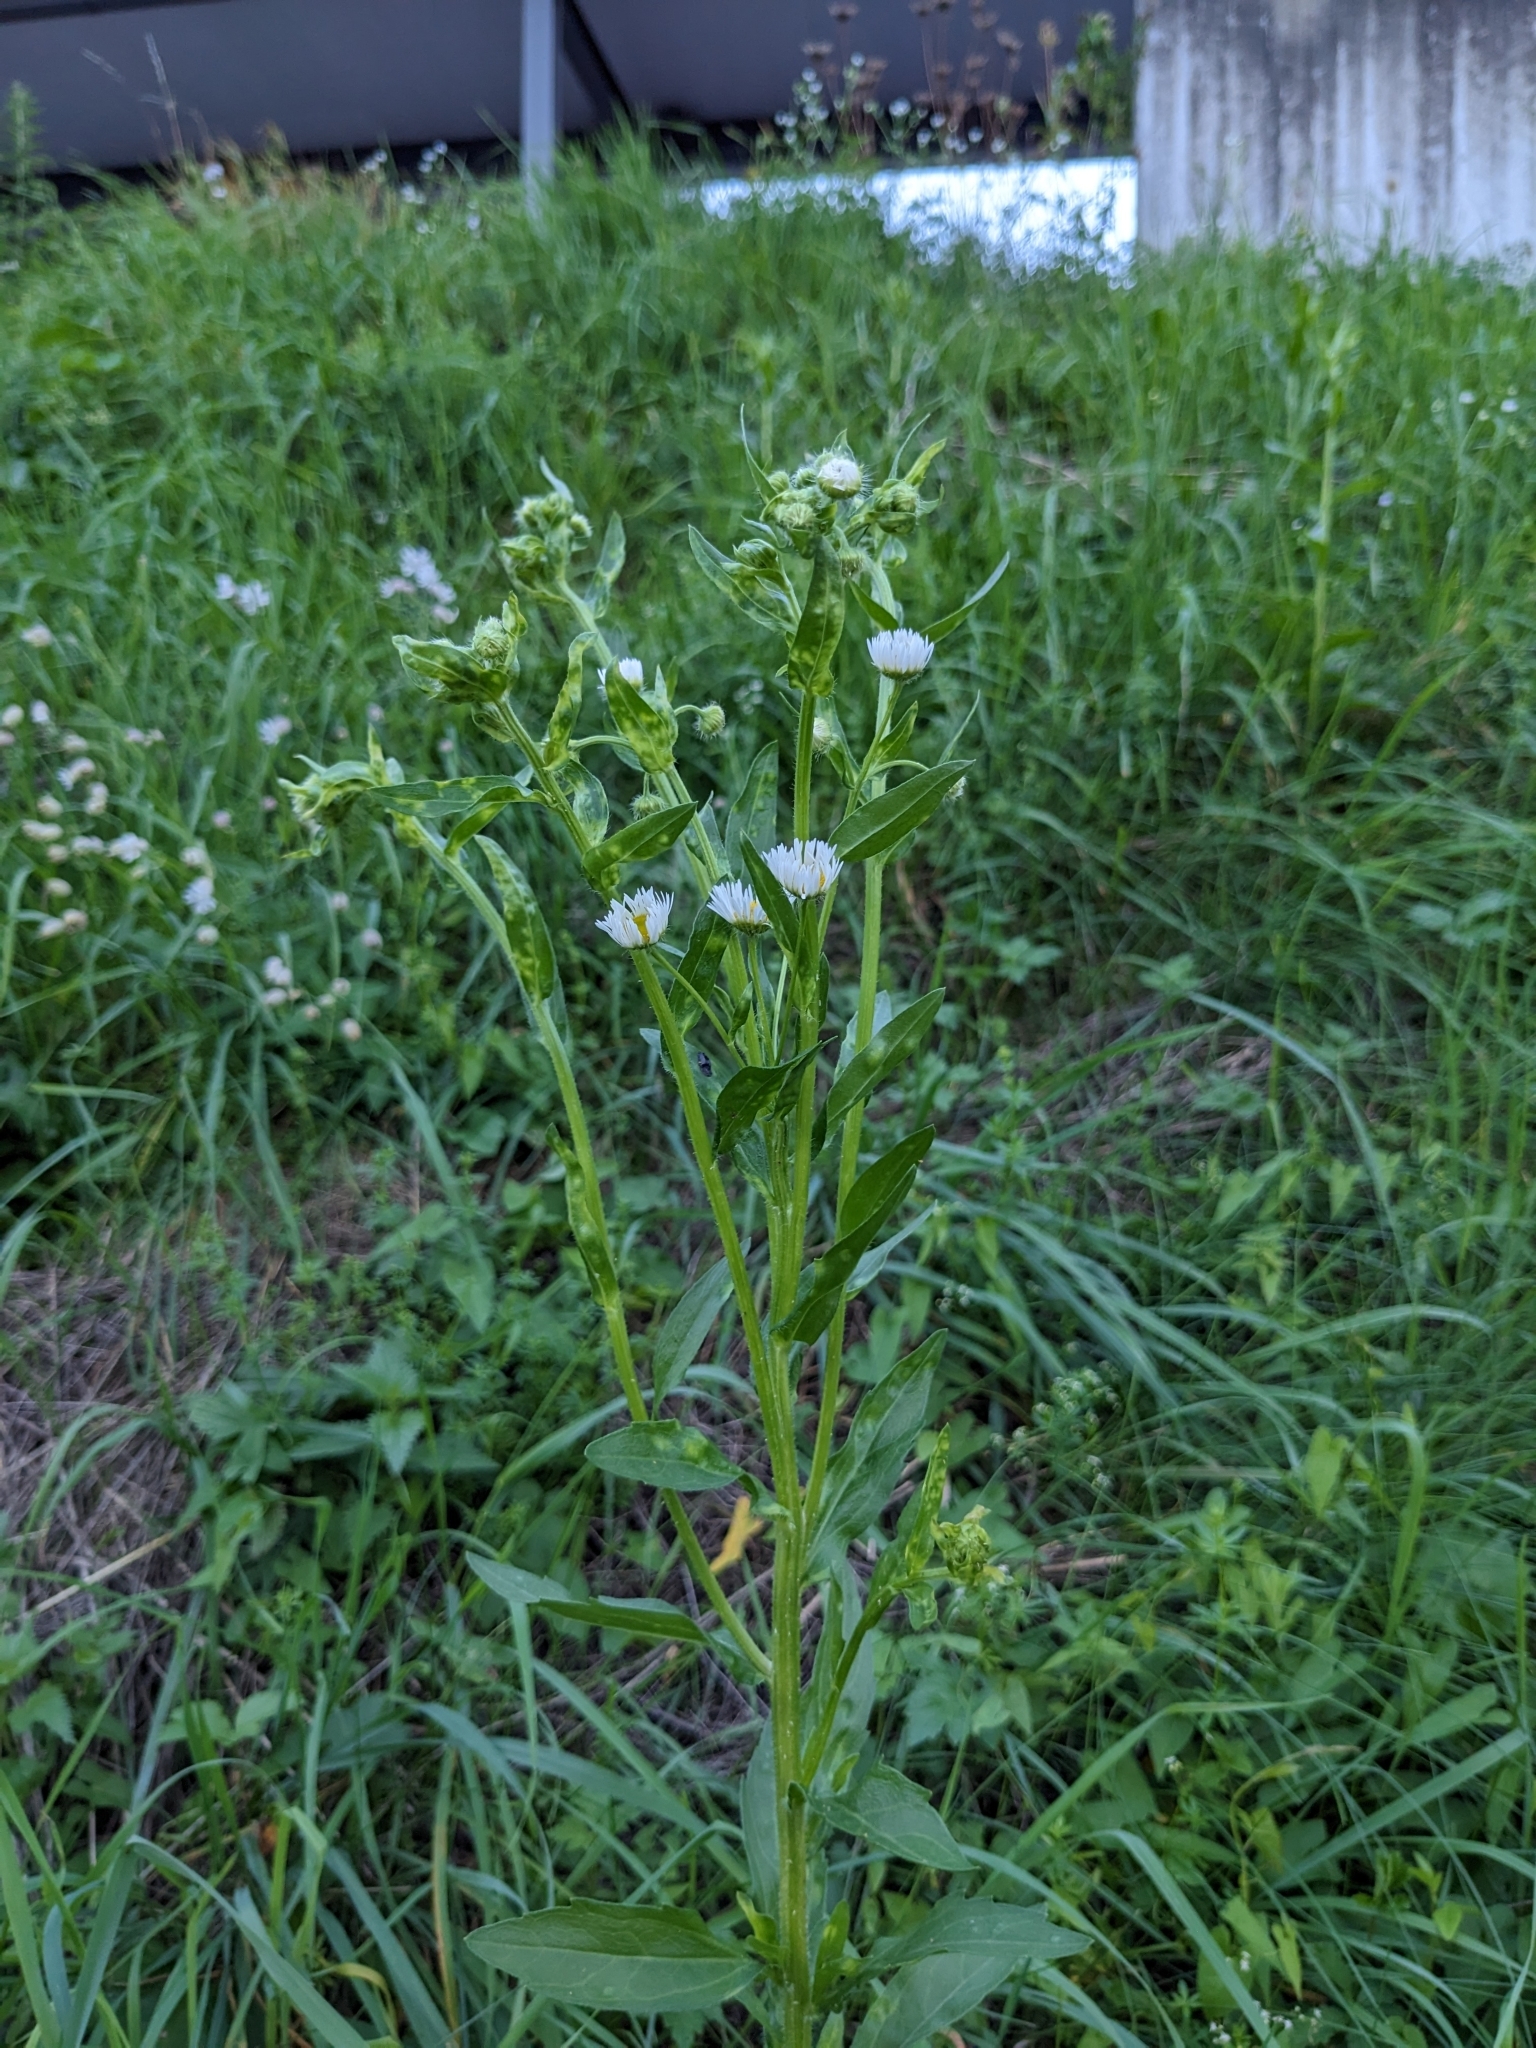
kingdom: Plantae
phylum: Tracheophyta
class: Magnoliopsida
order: Asterales
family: Asteraceae
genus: Erigeron
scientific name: Erigeron annuus
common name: Tall fleabane
